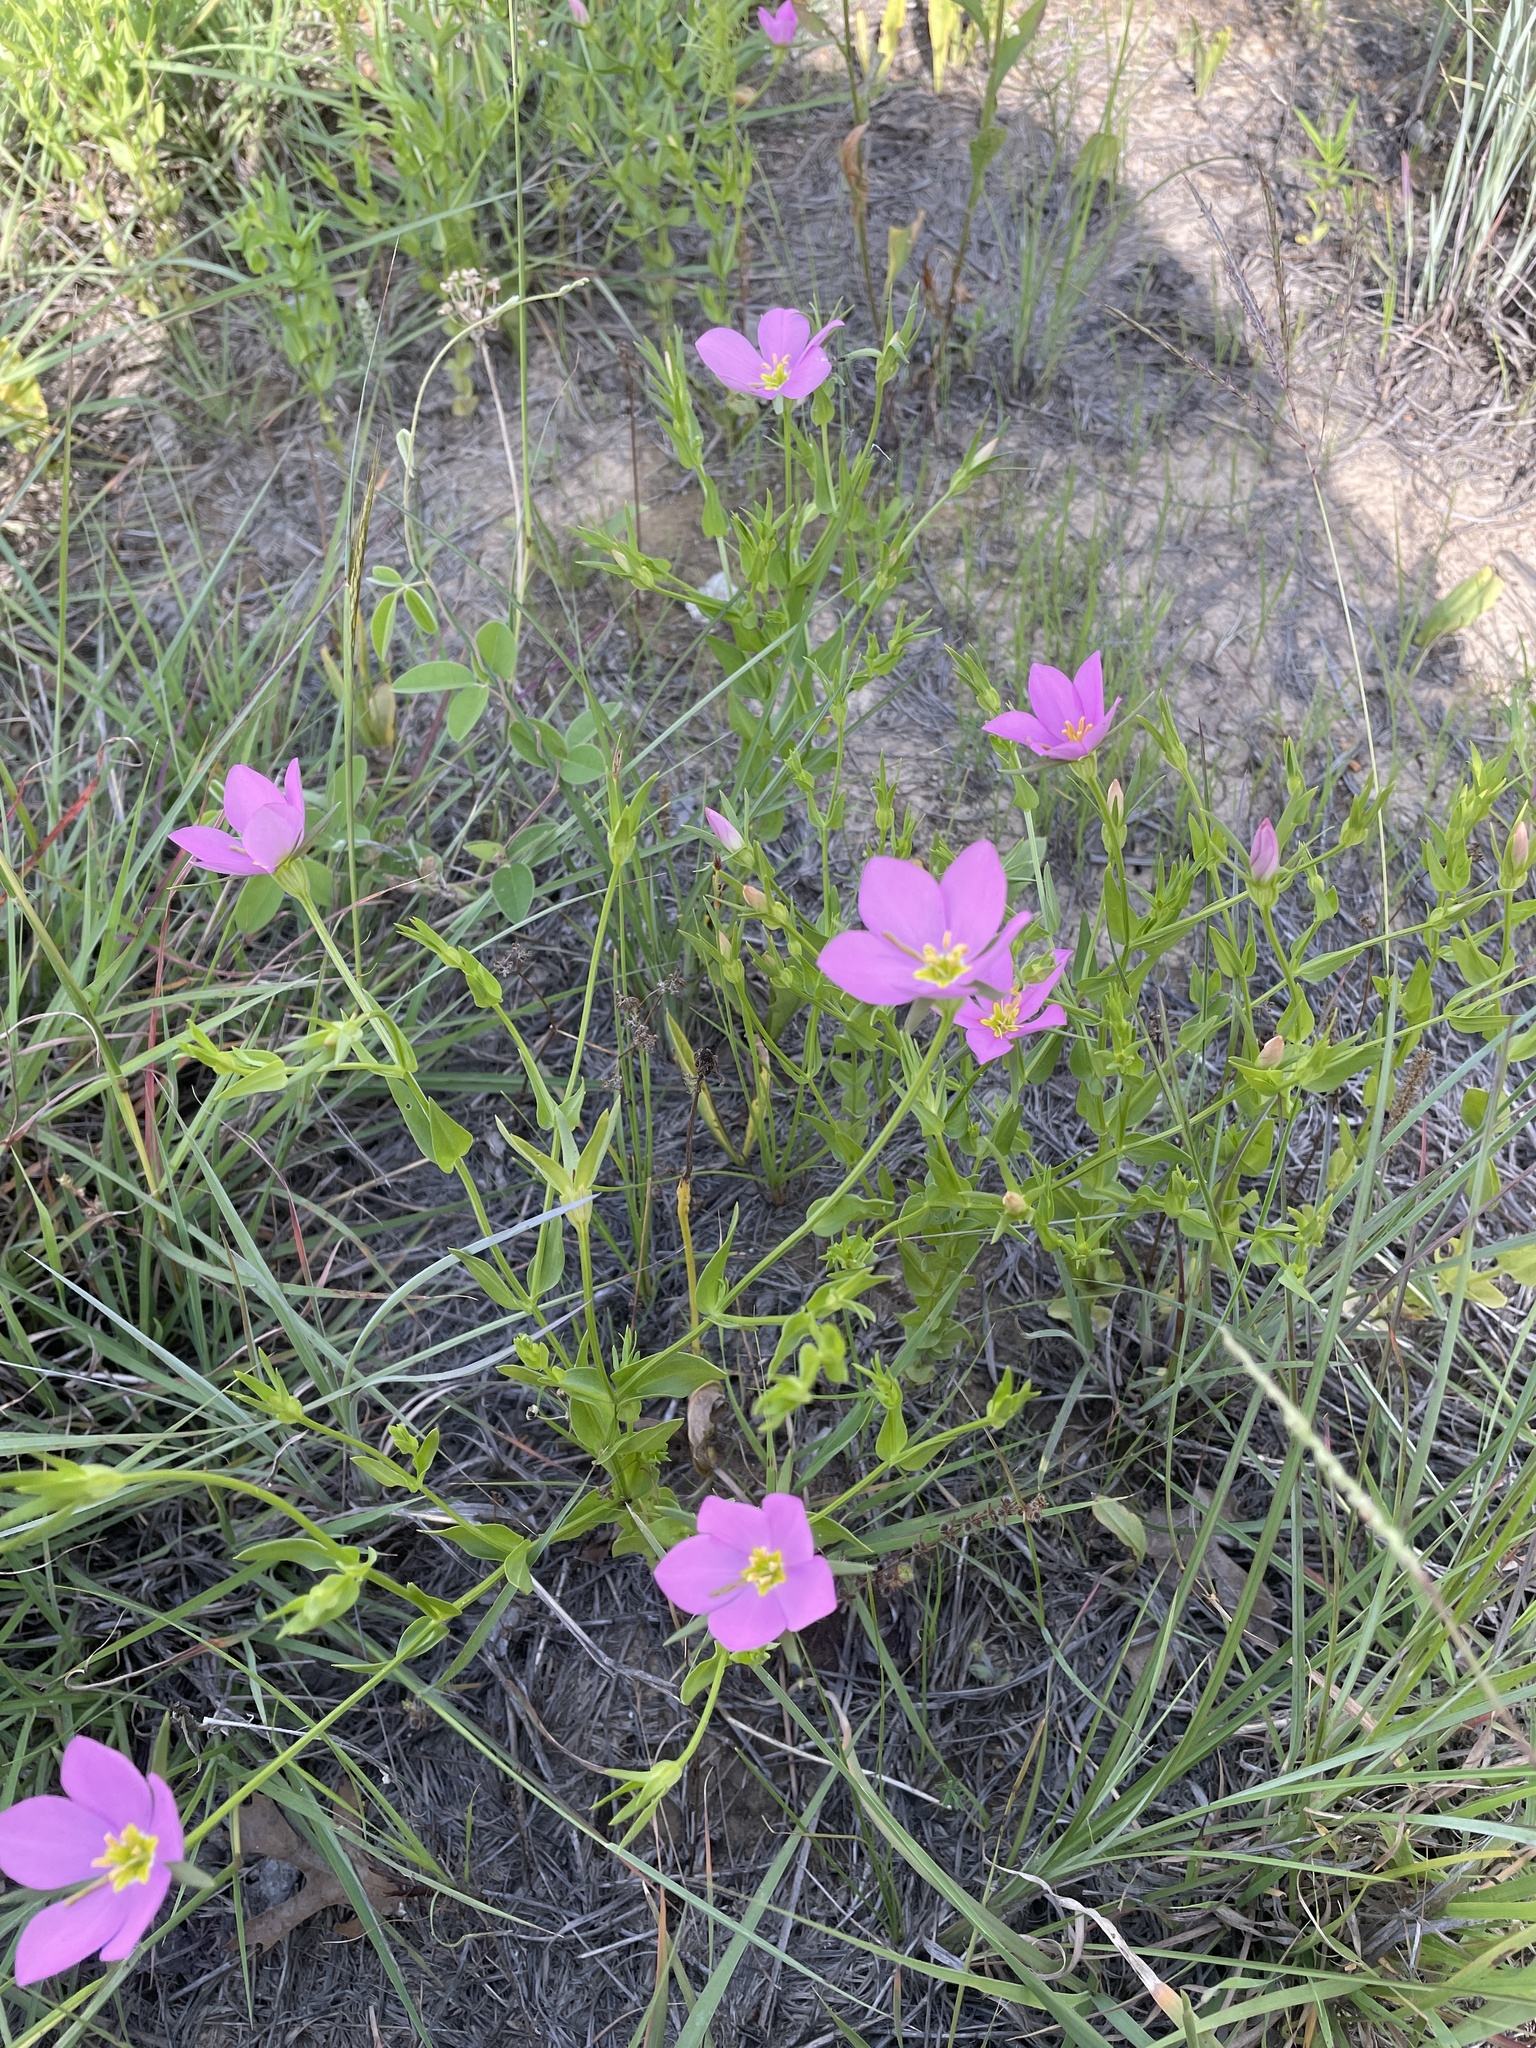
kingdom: Plantae
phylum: Tracheophyta
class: Magnoliopsida
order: Gentianales
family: Gentianaceae
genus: Sabatia
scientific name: Sabatia campestris
